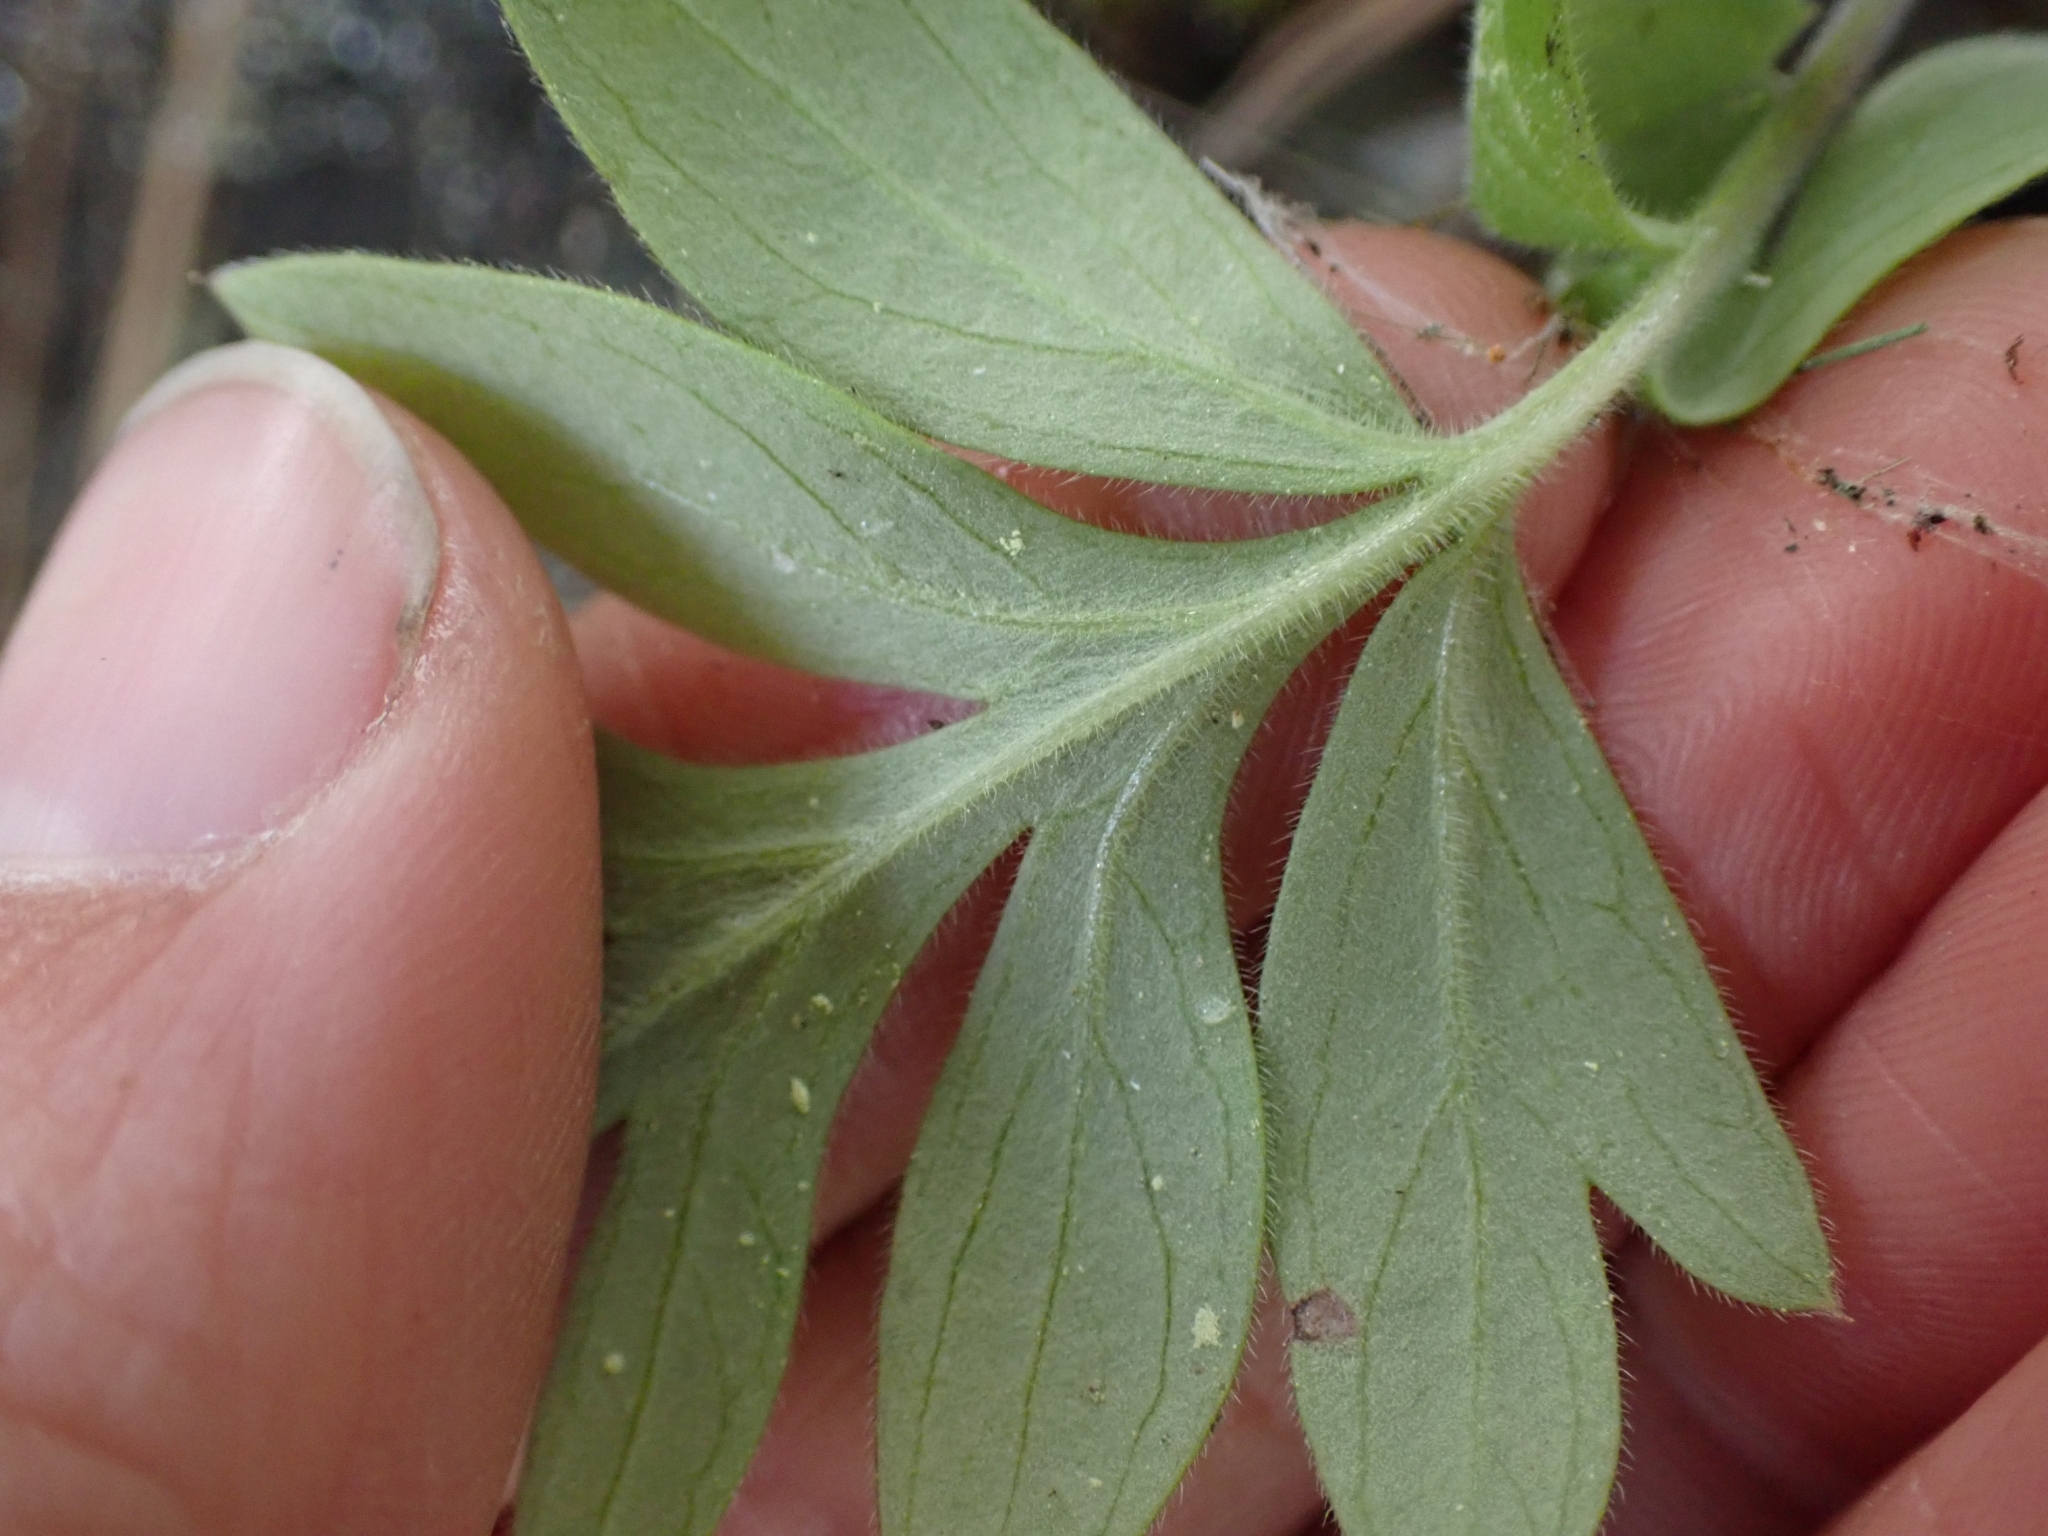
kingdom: Plantae
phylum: Tracheophyta
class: Magnoliopsida
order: Boraginales
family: Hydrophyllaceae
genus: Hydrophyllum
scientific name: Hydrophyllum capitatum
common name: Woollen-breeches
